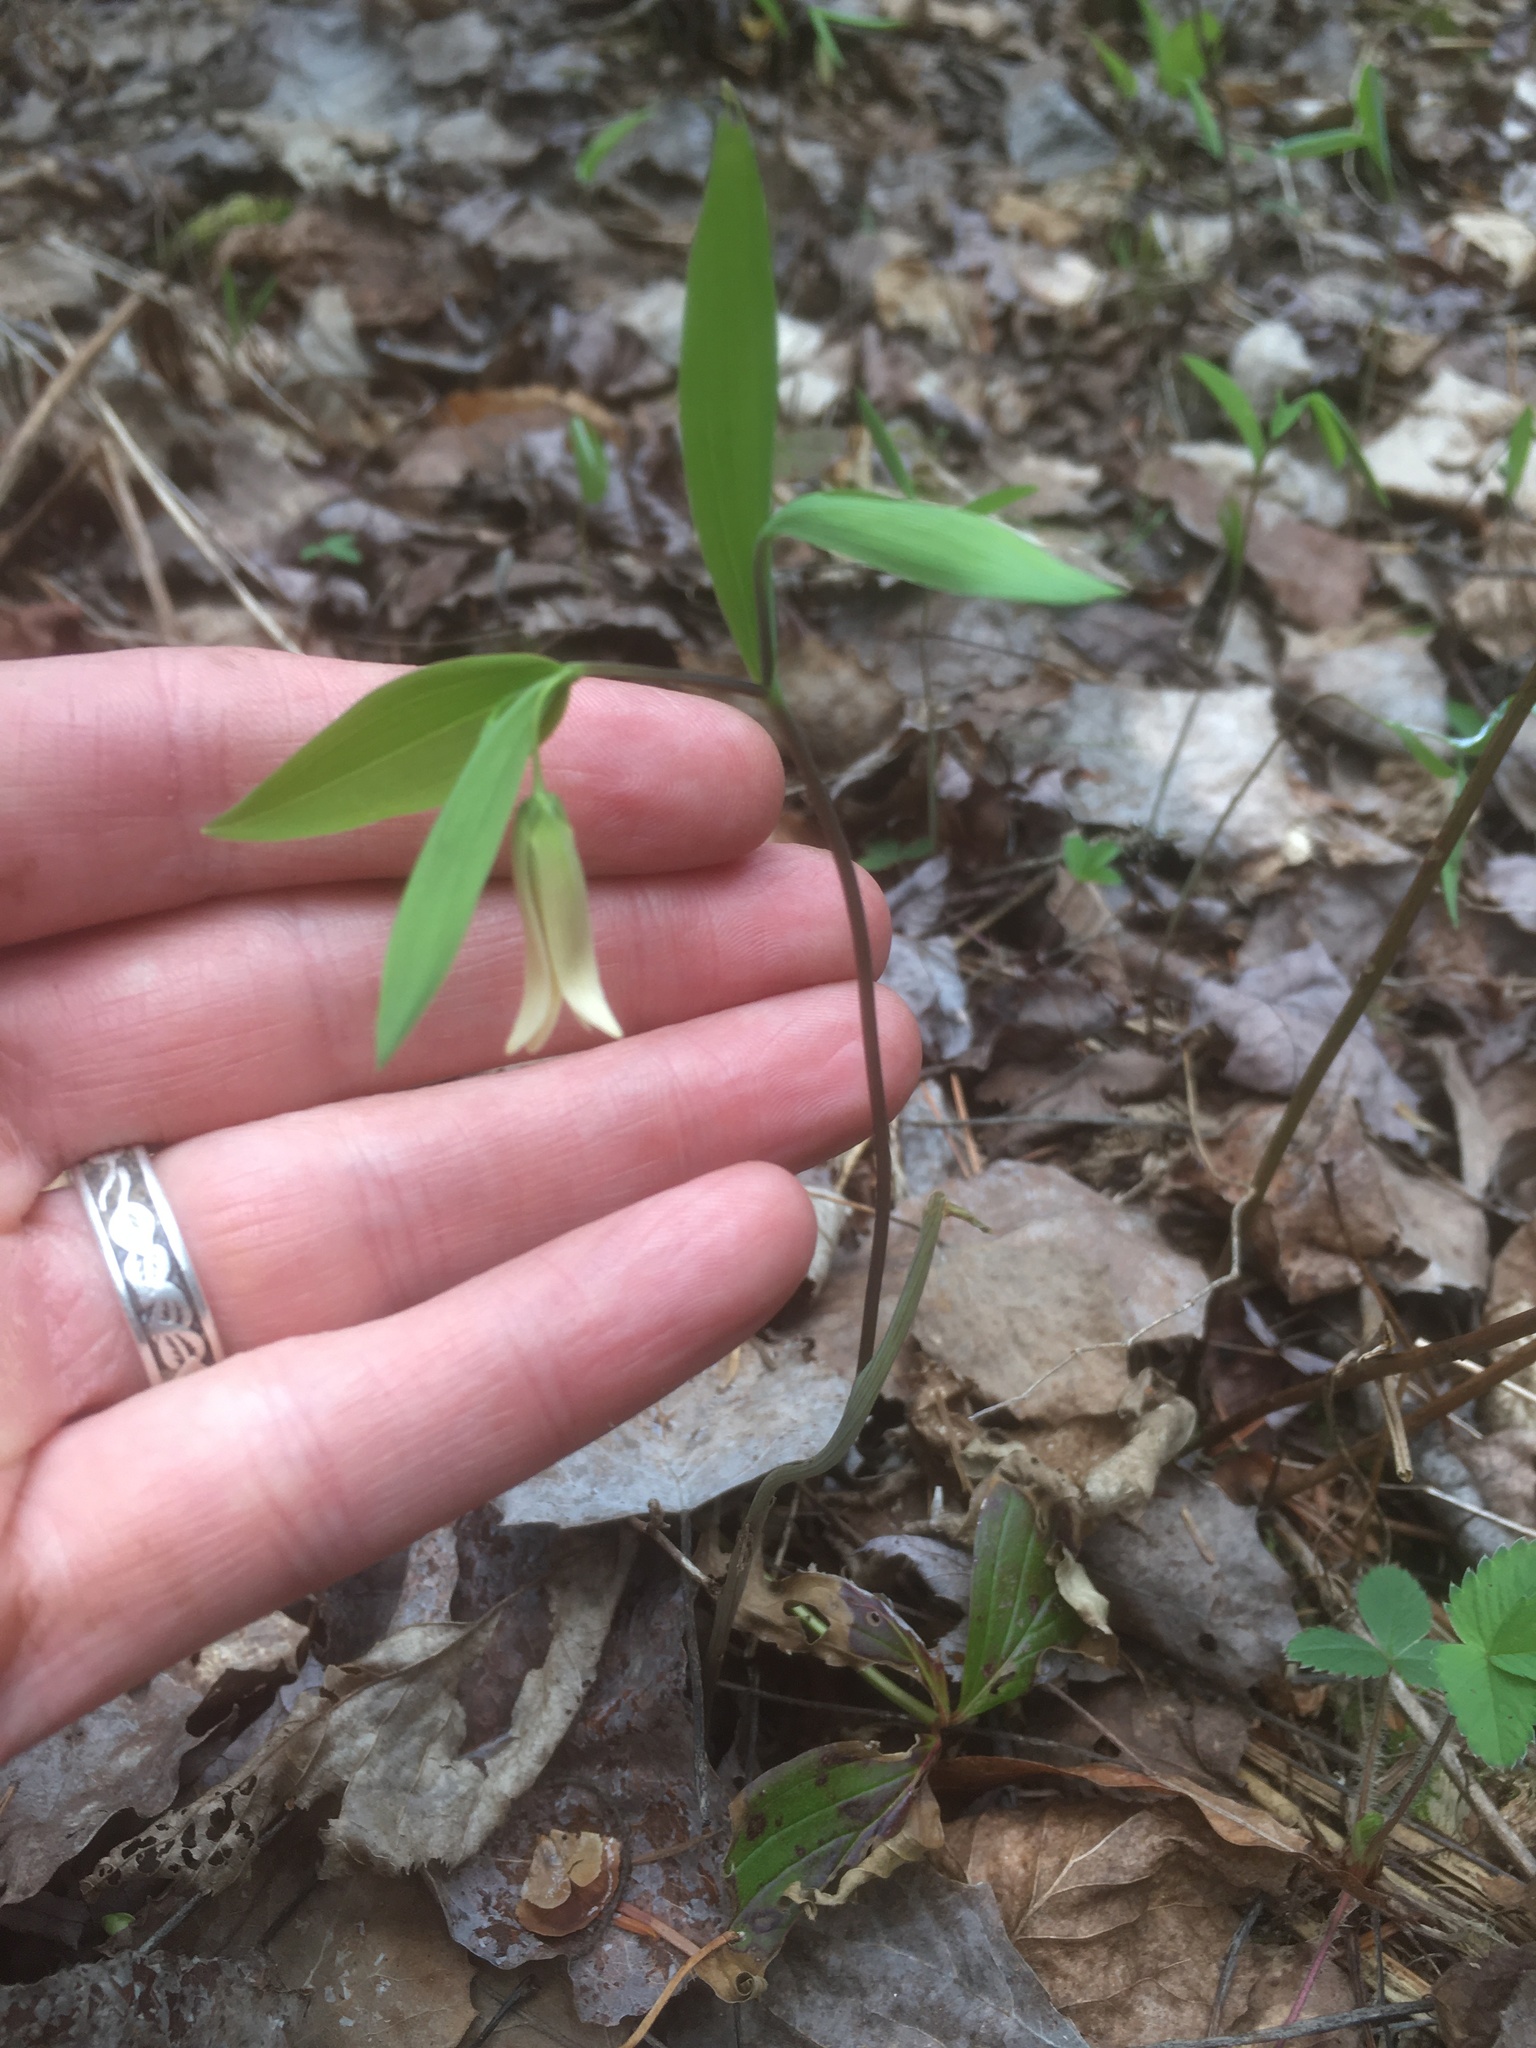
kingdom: Plantae
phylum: Tracheophyta
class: Liliopsida
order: Liliales
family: Colchicaceae
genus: Uvularia
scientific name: Uvularia sessilifolia
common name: Straw-lily
